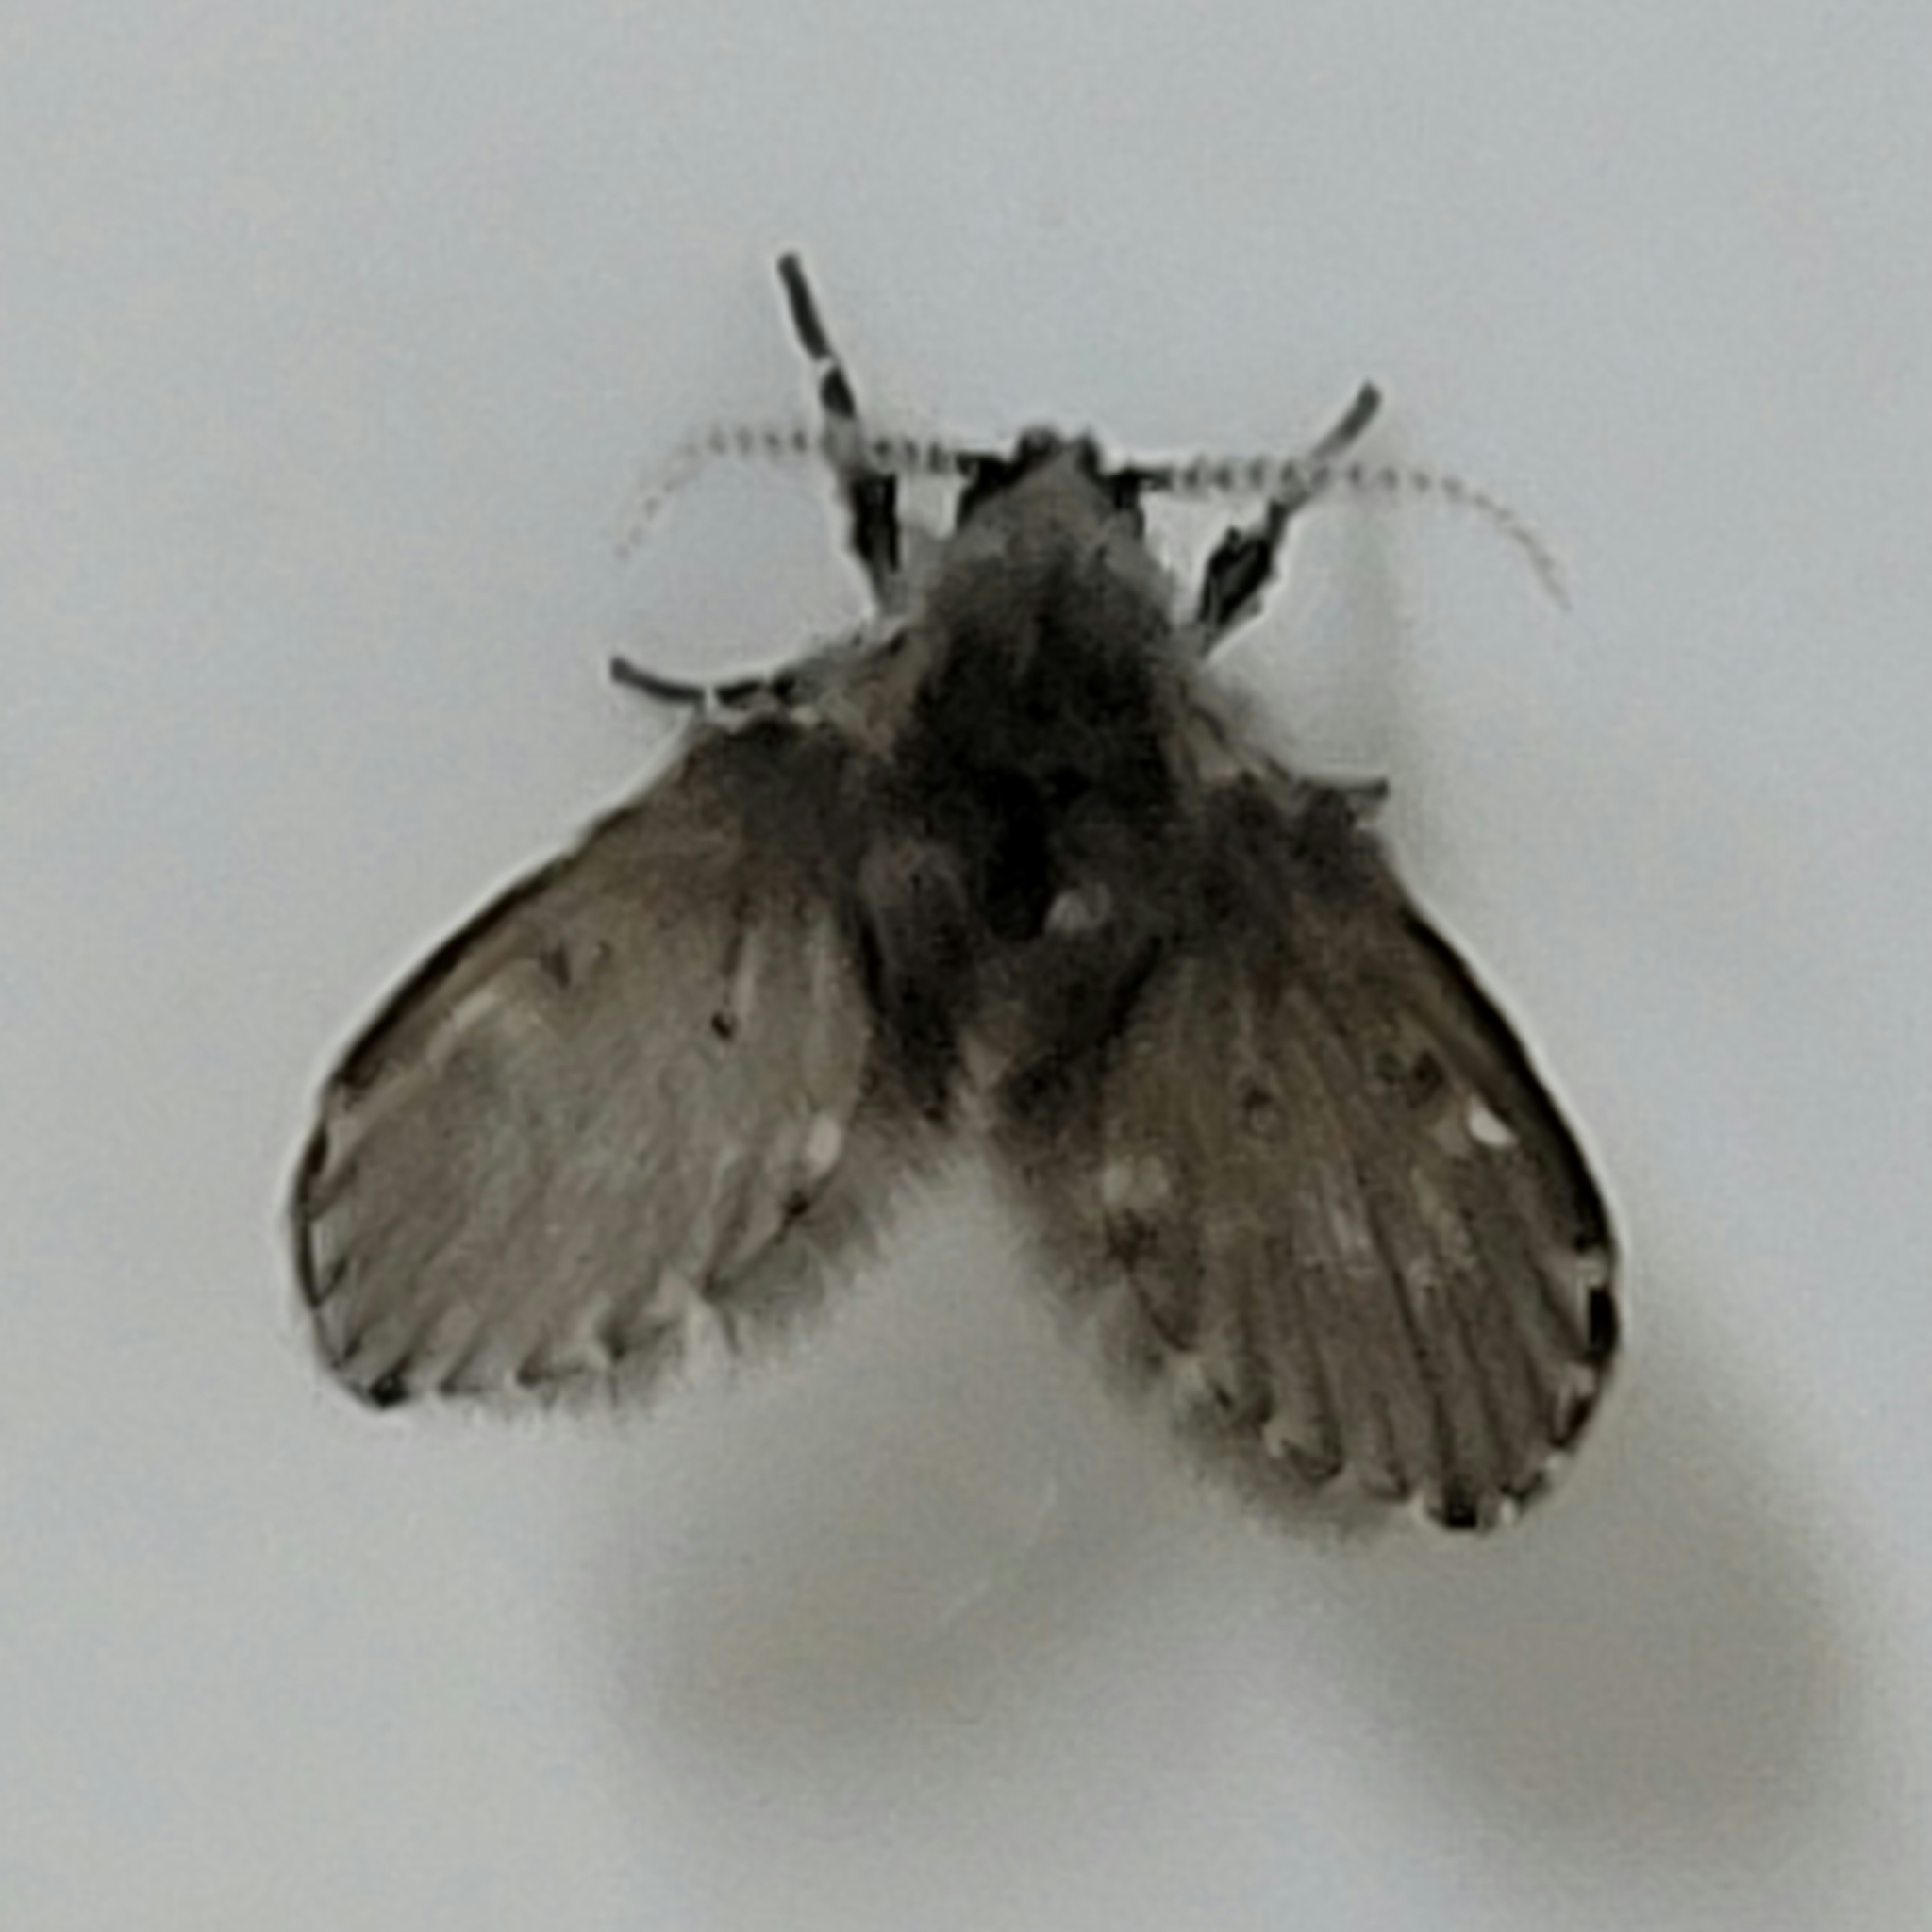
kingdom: Animalia
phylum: Arthropoda
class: Insecta
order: Diptera
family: Psychodidae
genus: Clogmia
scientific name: Clogmia albipunctatus
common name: White-spotted moth fly
